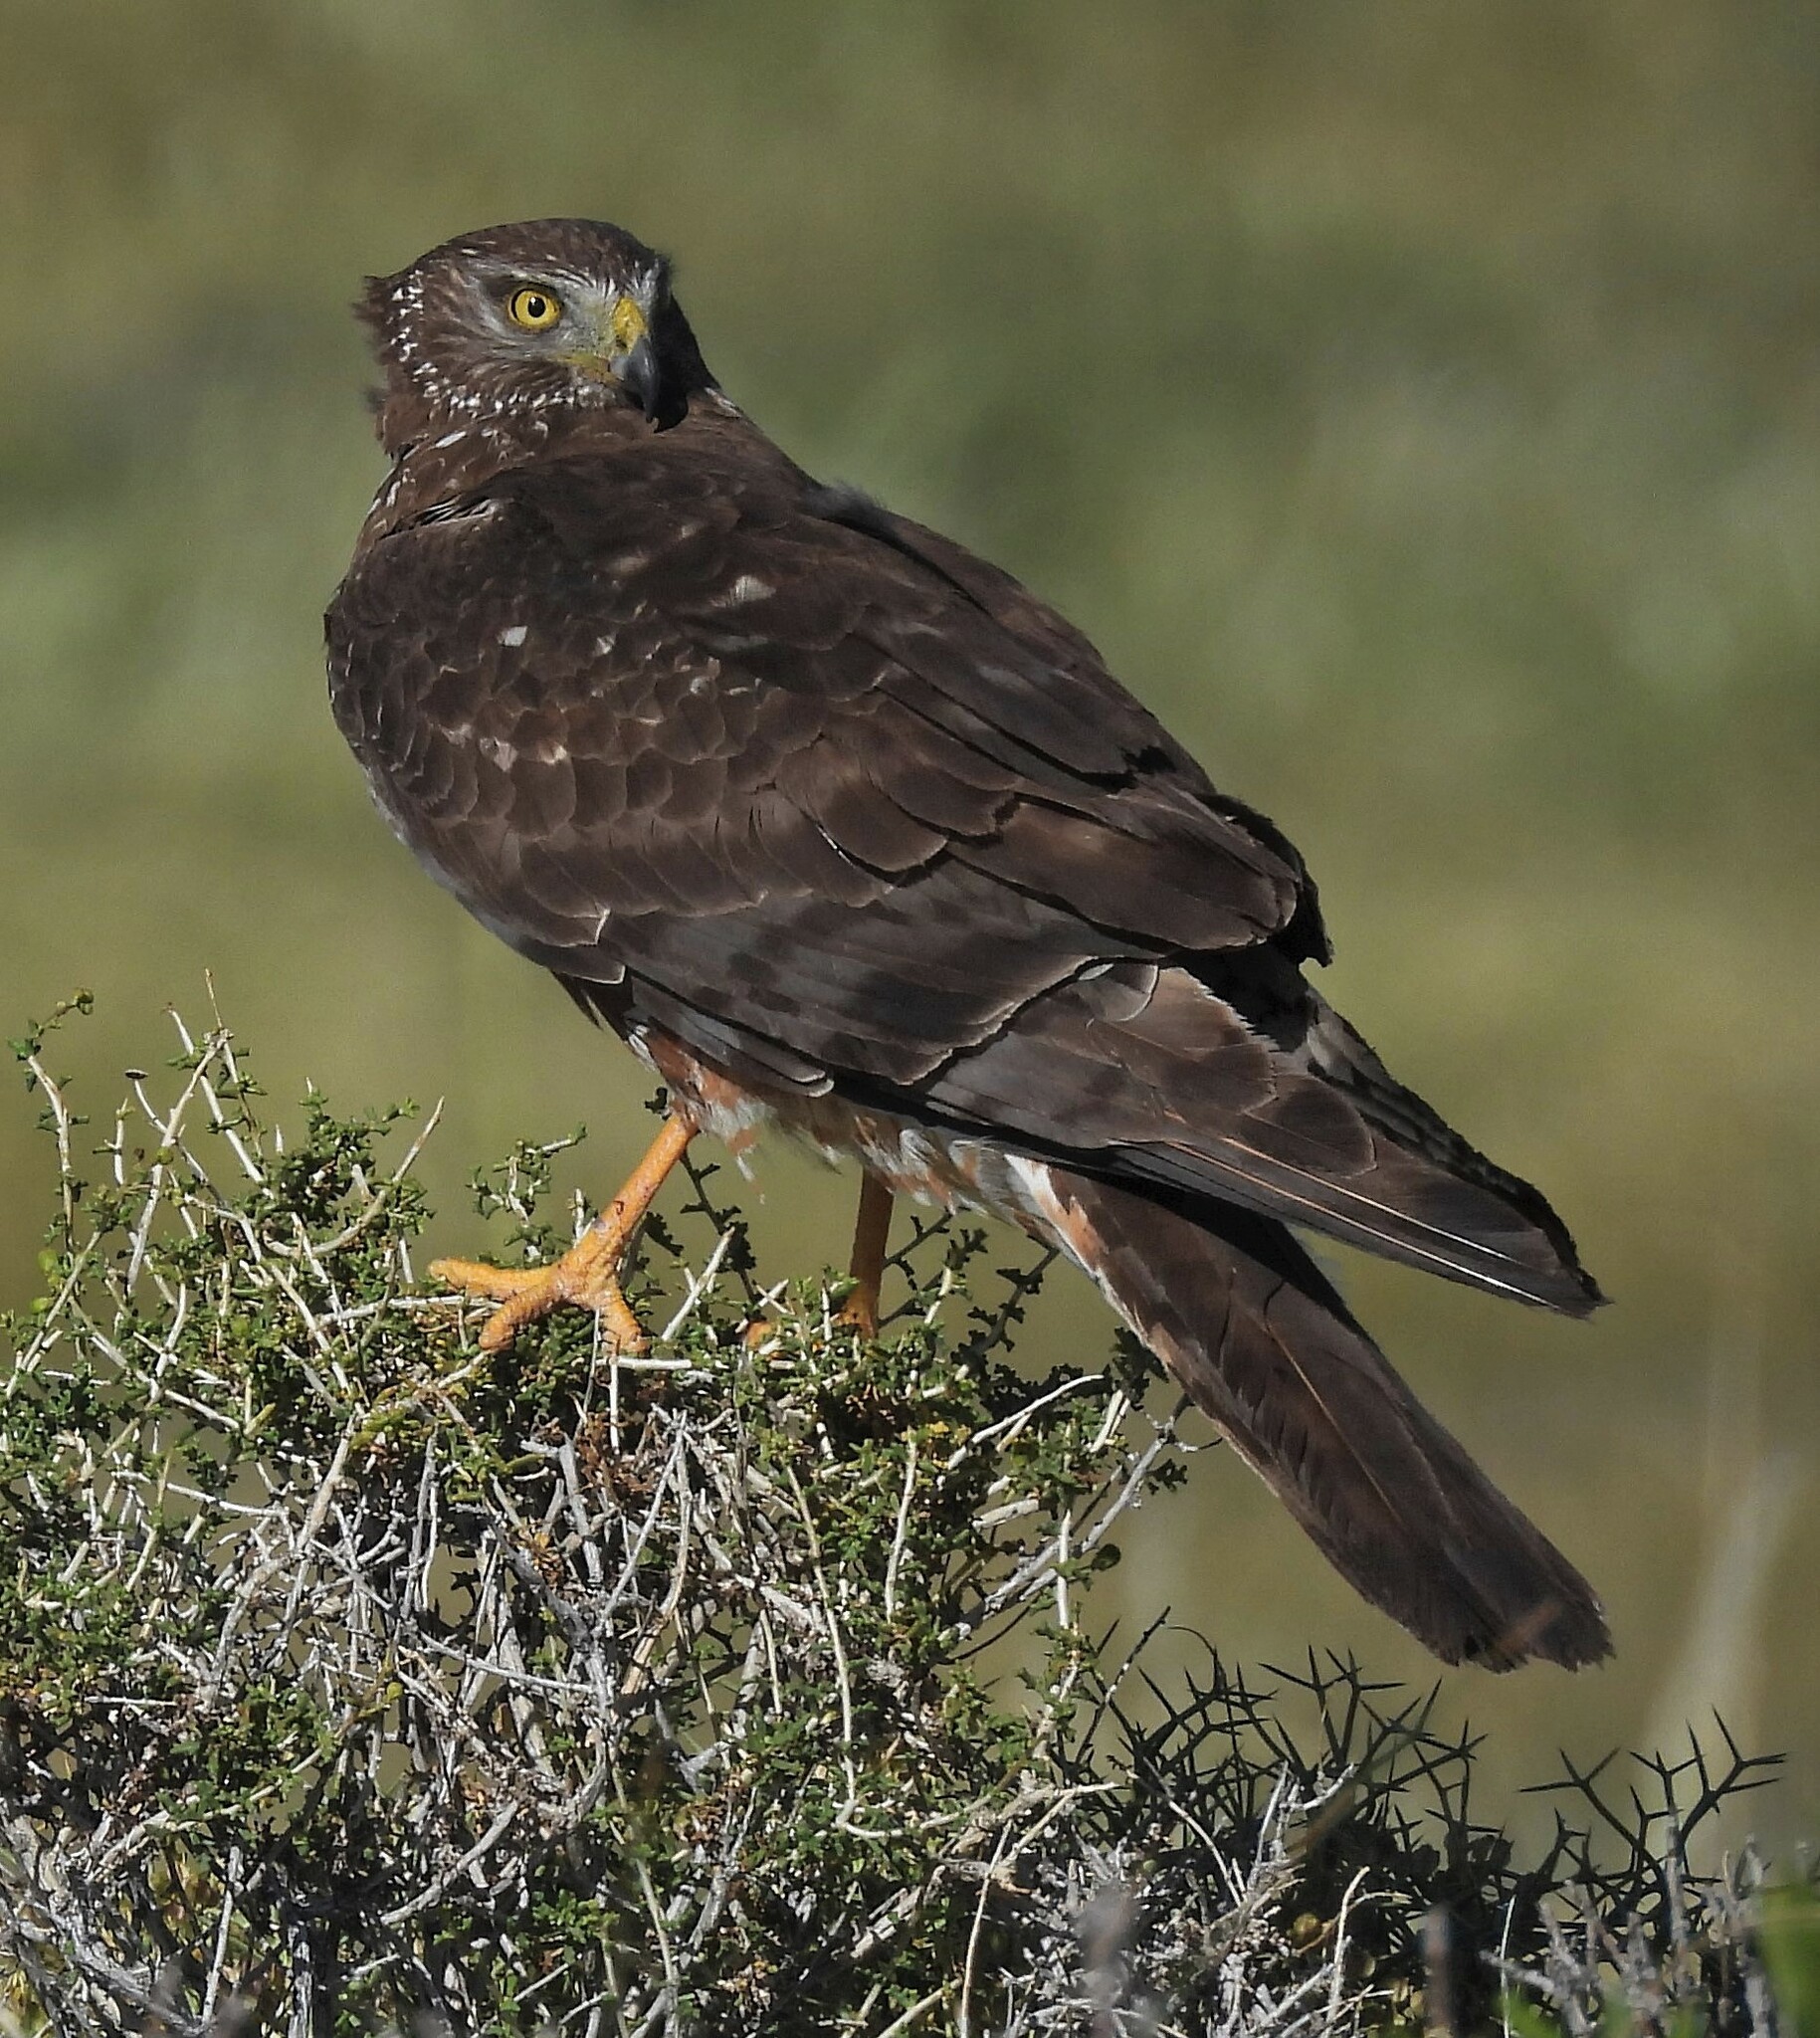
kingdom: Animalia
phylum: Chordata
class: Aves
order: Accipitriformes
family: Accipitridae
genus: Circus
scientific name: Circus cinereus
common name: Cinereous harrier
